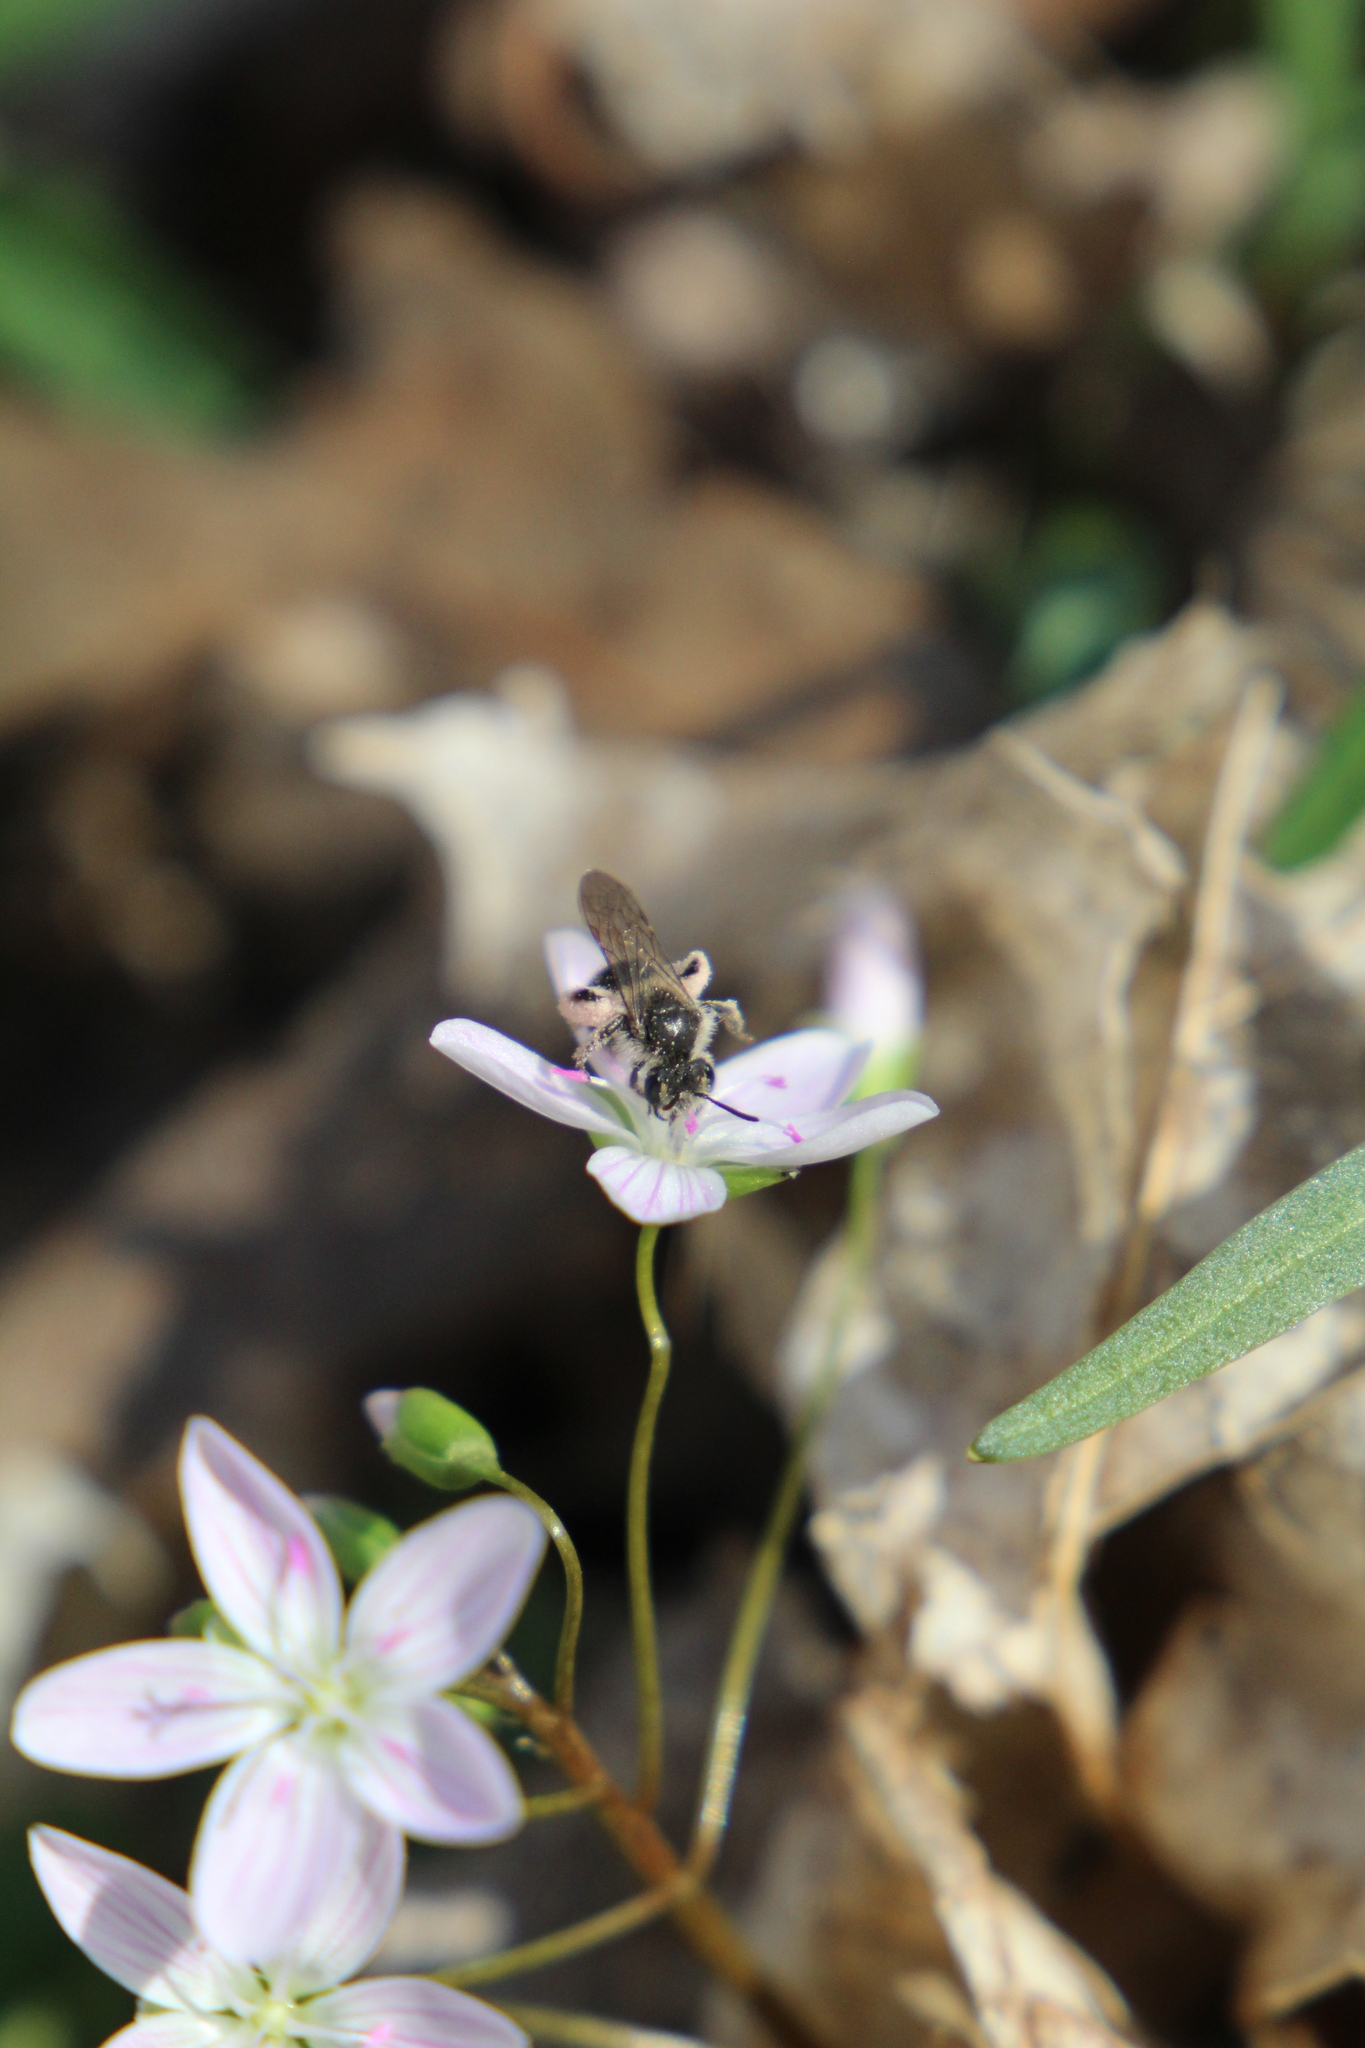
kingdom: Animalia
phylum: Arthropoda
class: Insecta
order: Hymenoptera
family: Andrenidae
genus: Andrena
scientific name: Andrena erigeniae
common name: Spring beauty miner
